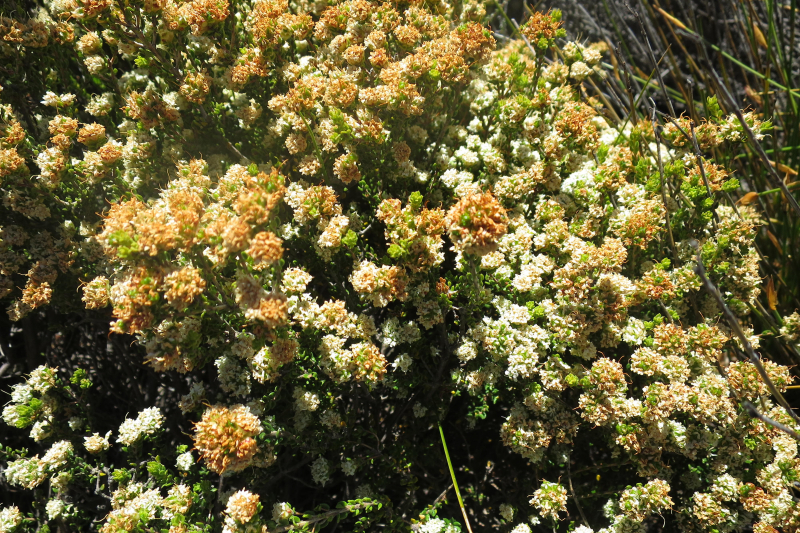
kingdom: Plantae
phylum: Tracheophyta
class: Magnoliopsida
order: Sapindales
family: Rutaceae
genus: Agathosma
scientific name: Agathosma barnesiae
